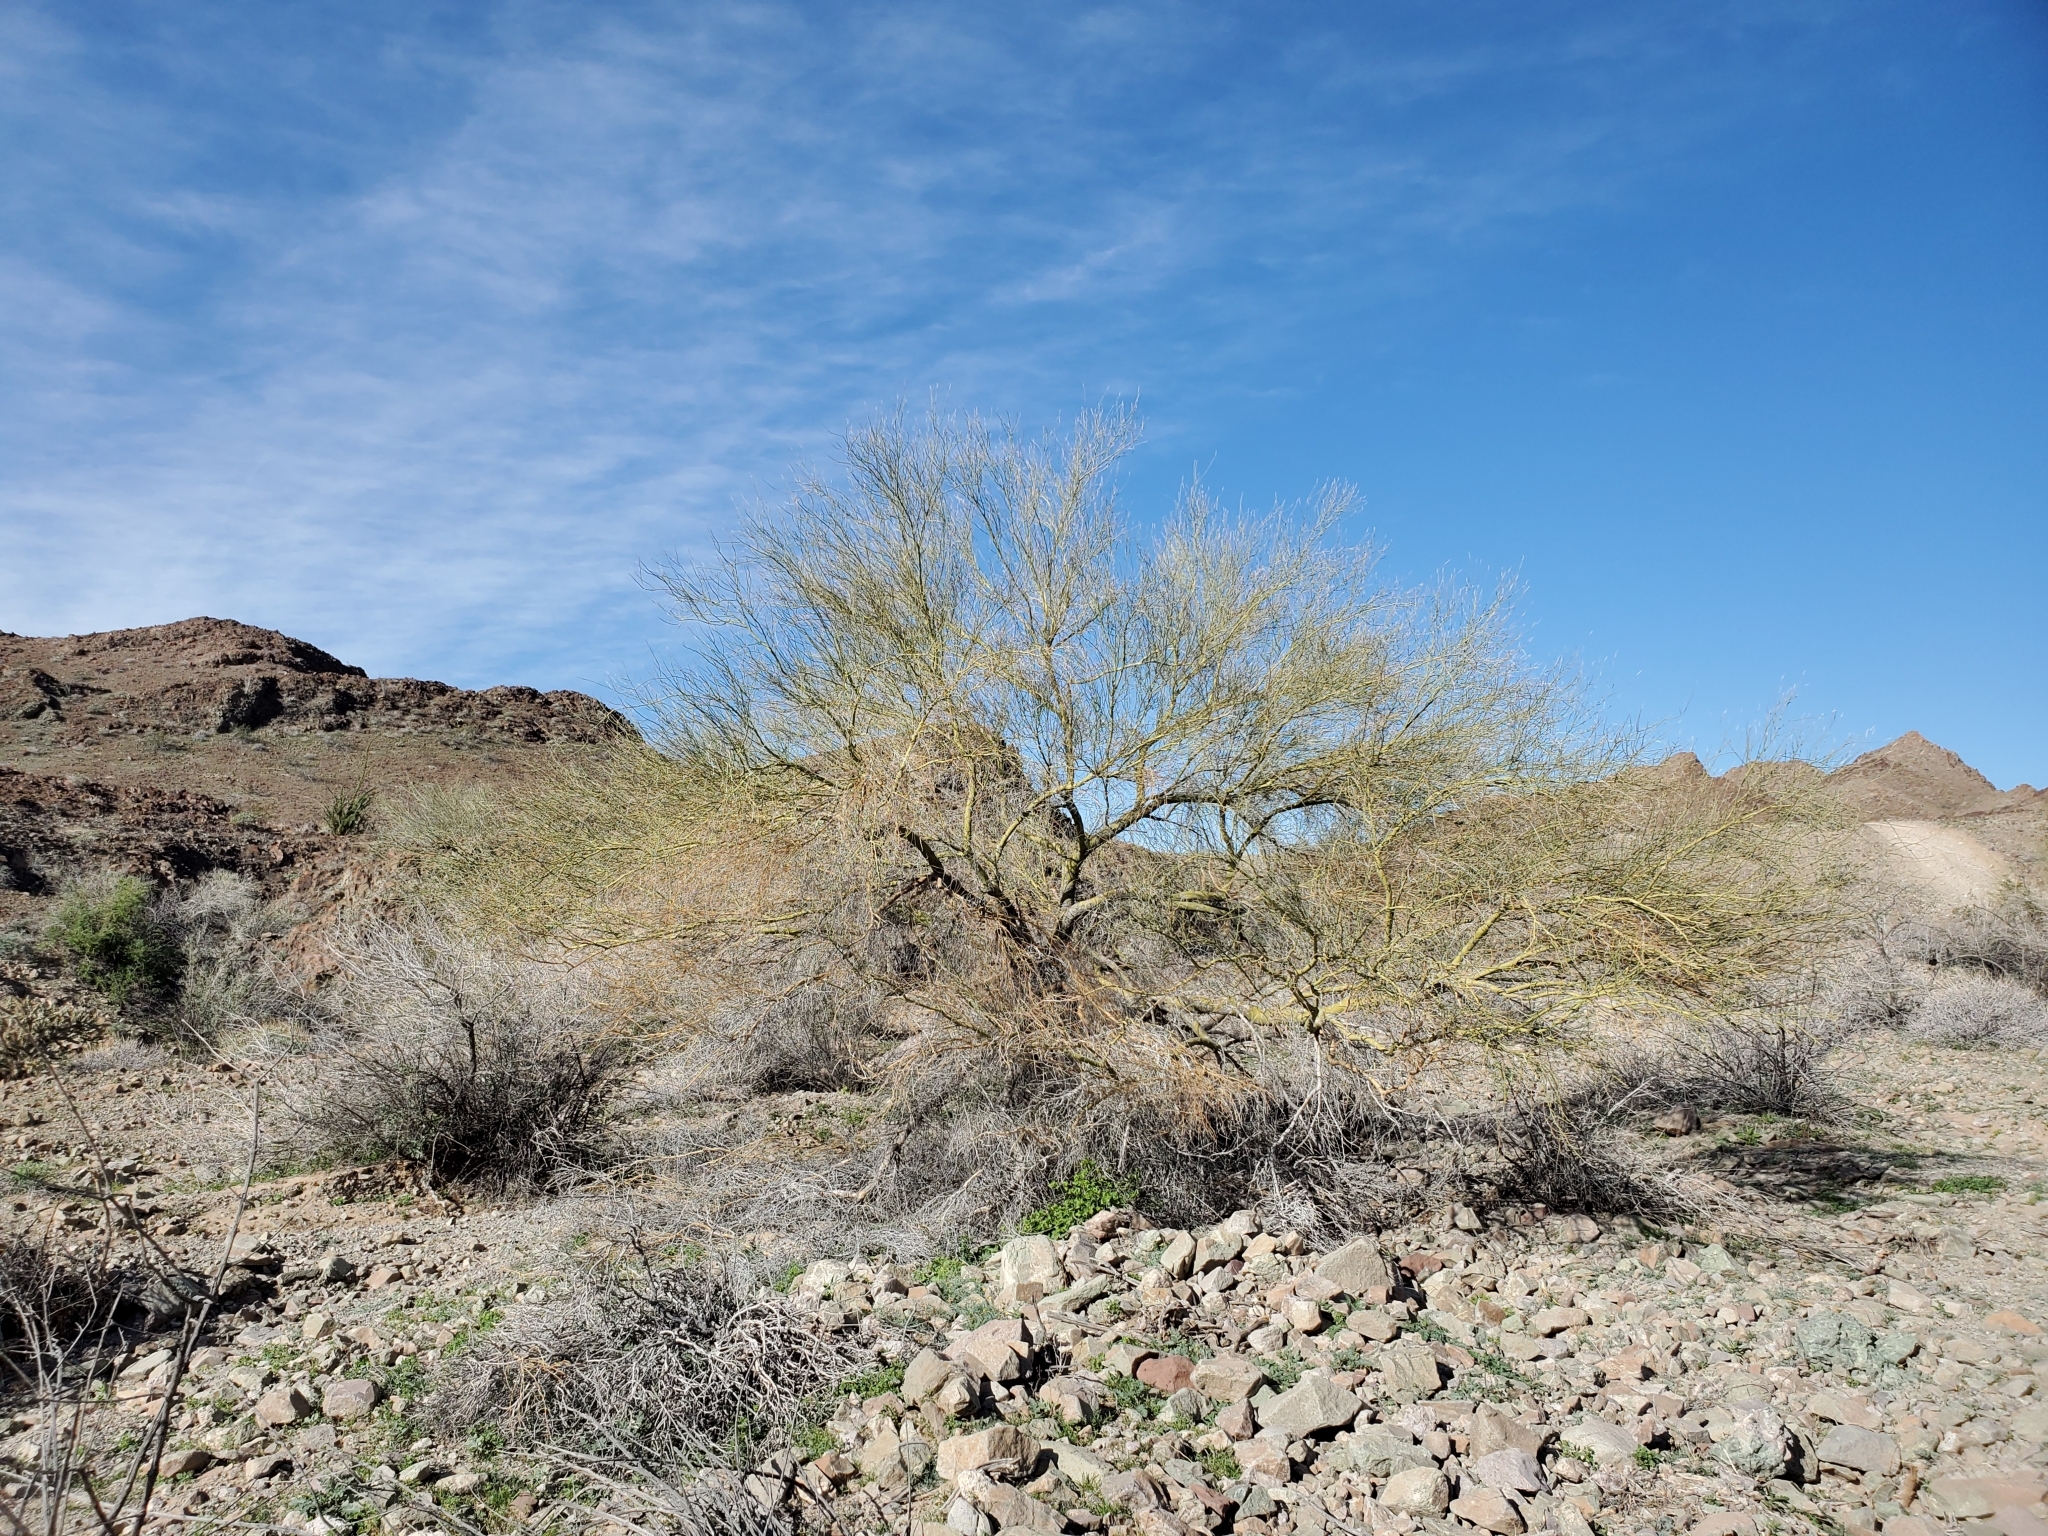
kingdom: Plantae
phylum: Tracheophyta
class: Magnoliopsida
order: Fabales
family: Fabaceae
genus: Parkinsonia
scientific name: Parkinsonia florida
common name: Blue paloverde
